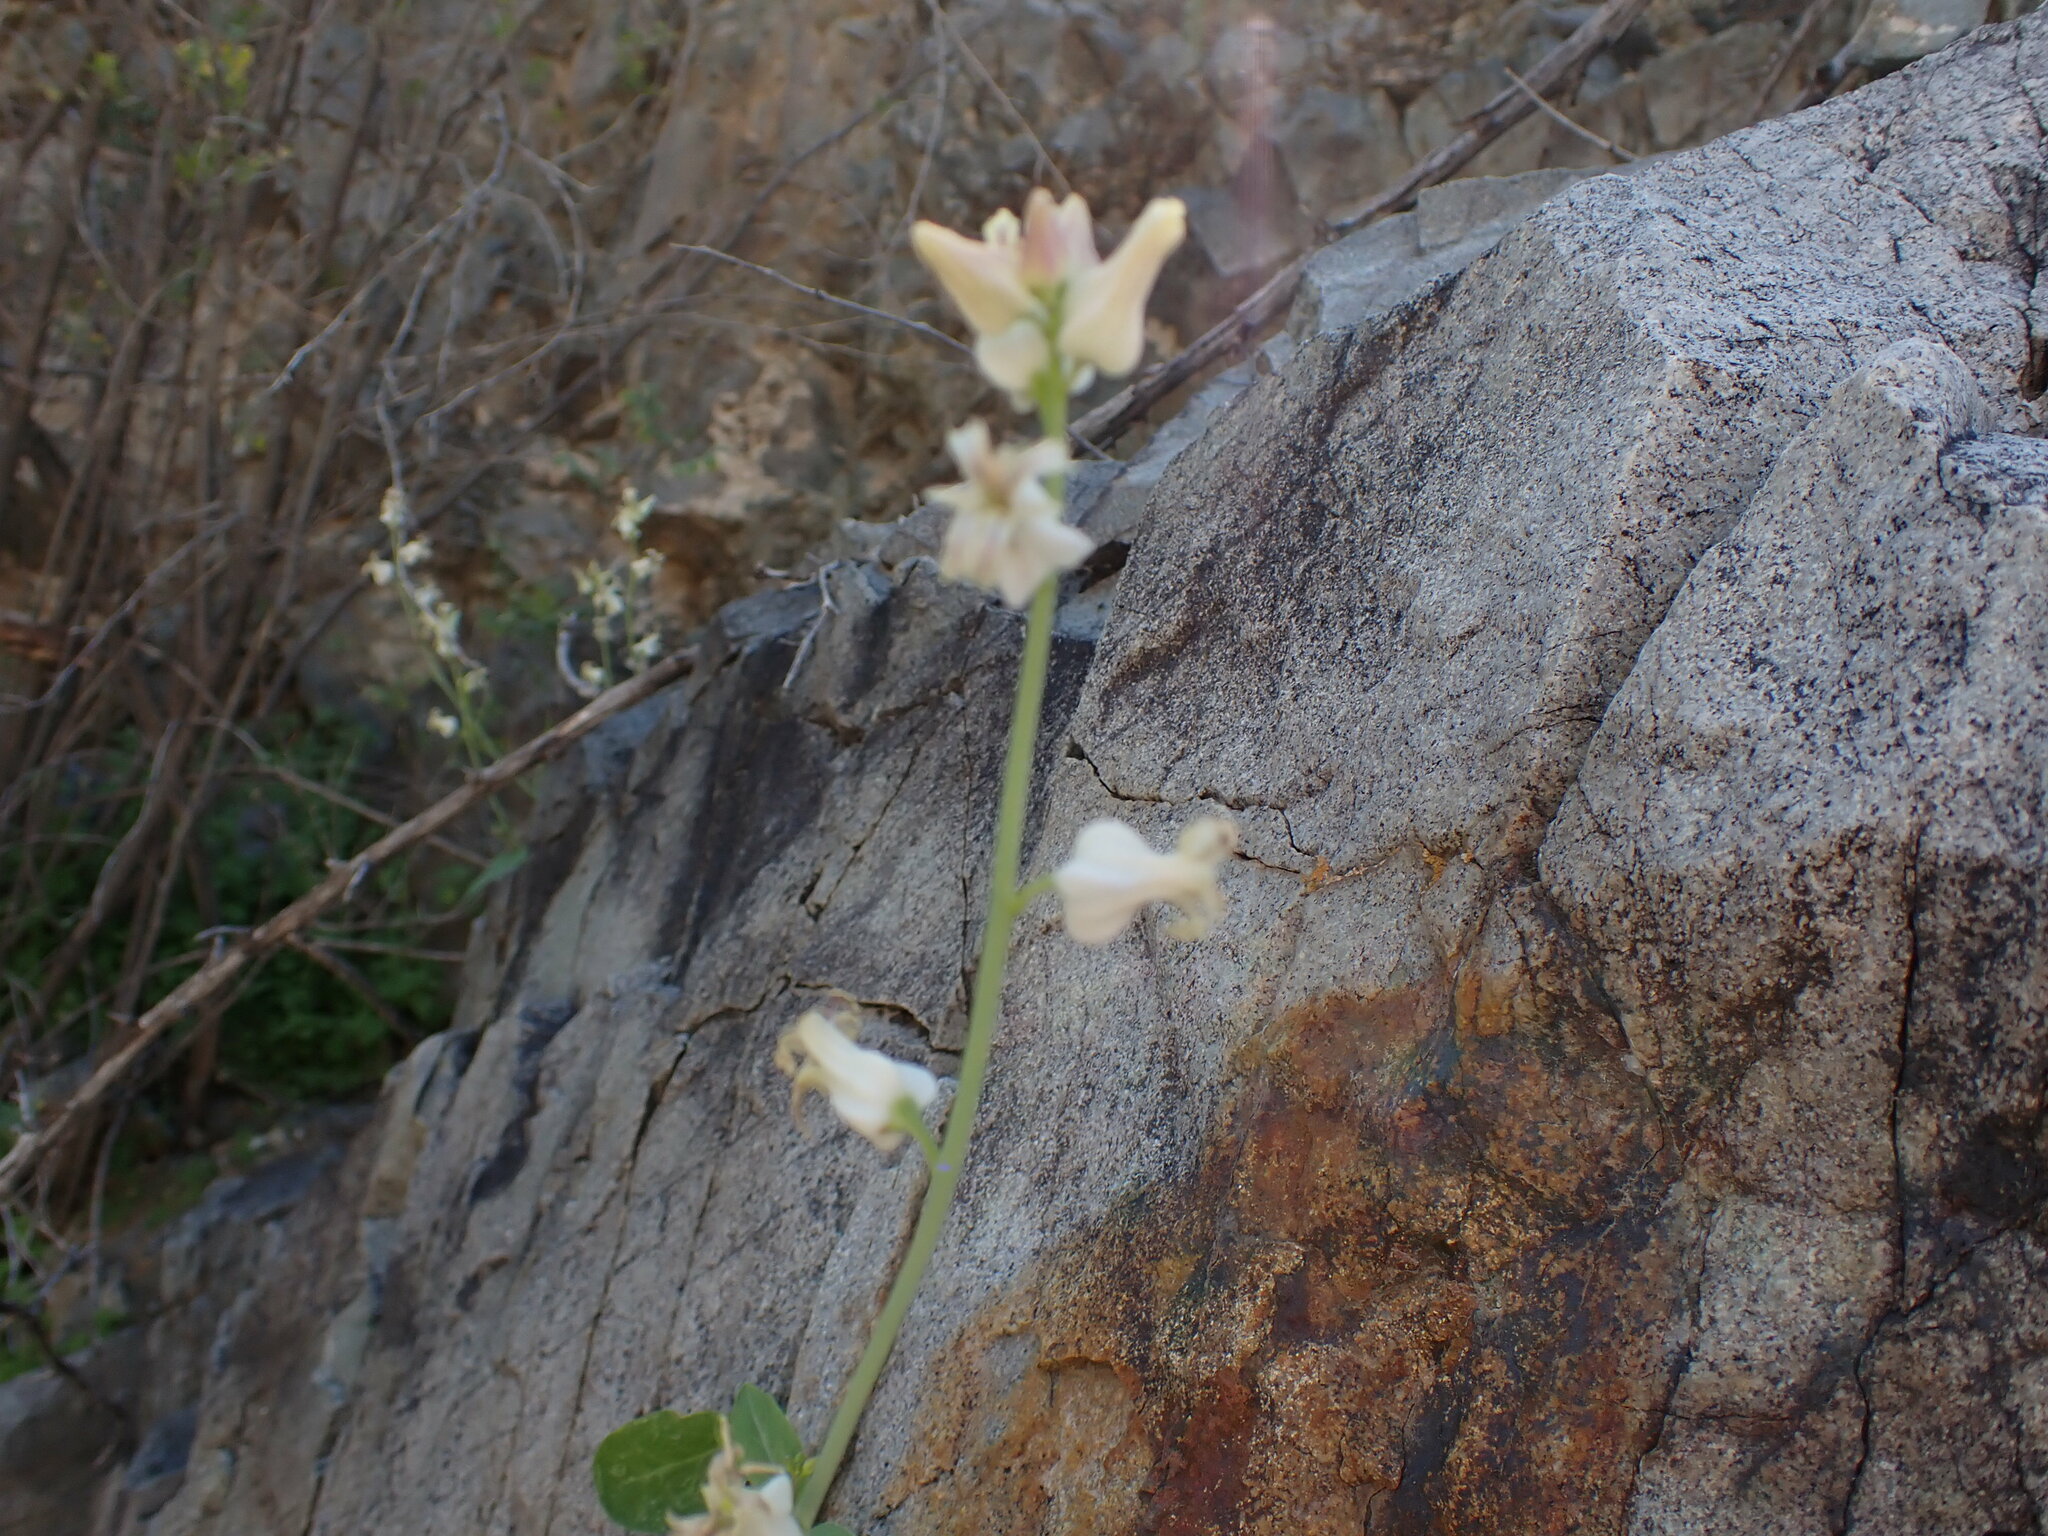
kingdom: Plantae
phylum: Tracheophyta
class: Magnoliopsida
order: Brassicales
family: Brassicaceae
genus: Streptanthus
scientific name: Streptanthus carinatus
